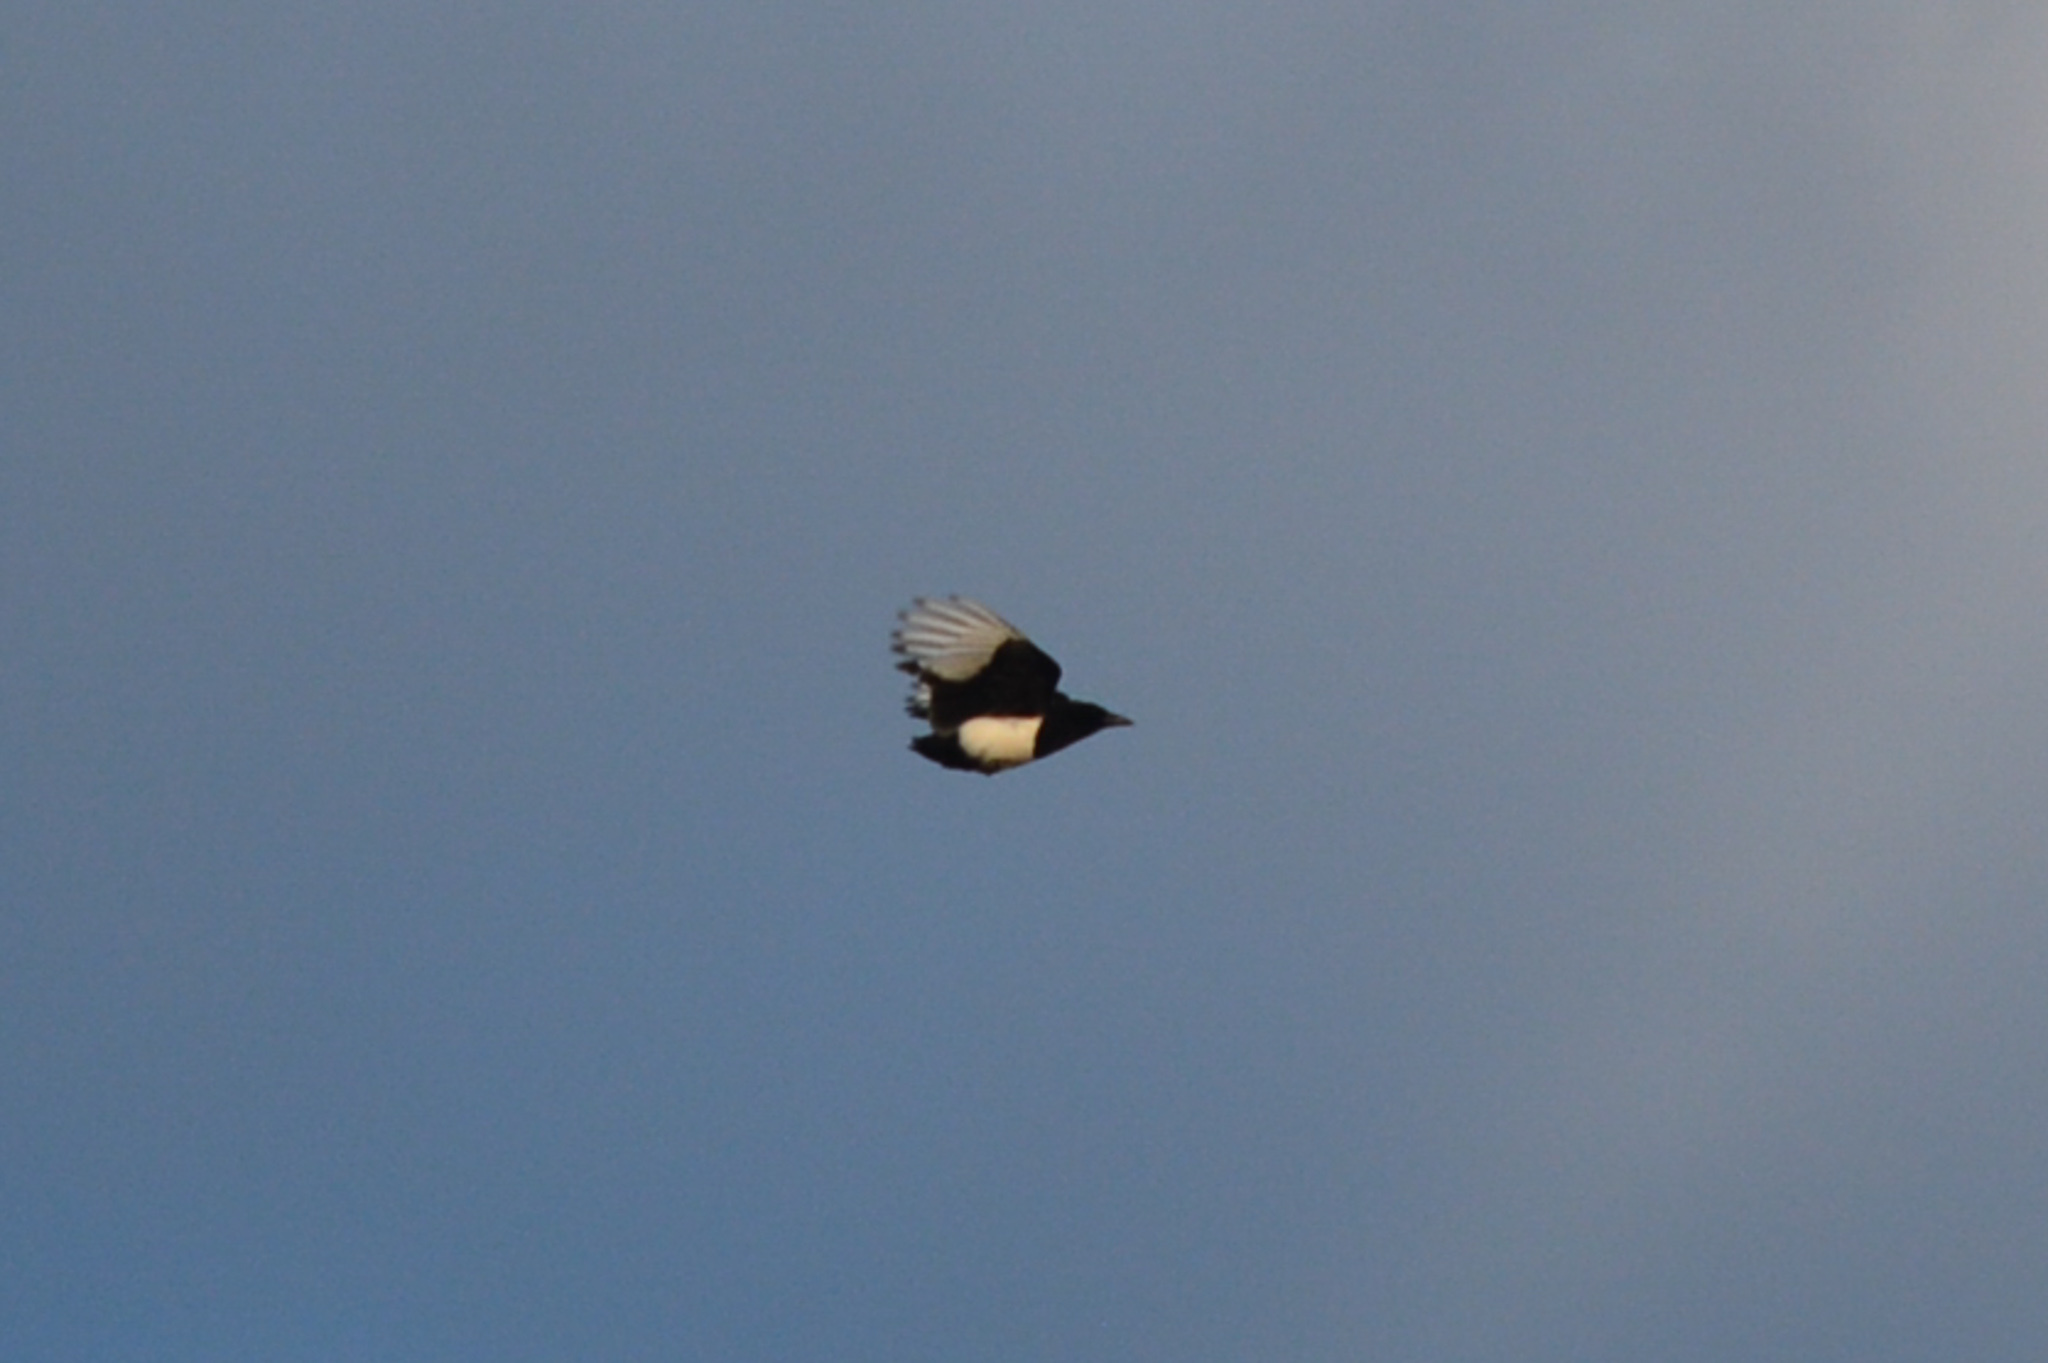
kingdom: Animalia
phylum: Chordata
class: Aves
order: Passeriformes
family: Corvidae
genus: Pica
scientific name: Pica hudsonia
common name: Black-billed magpie
